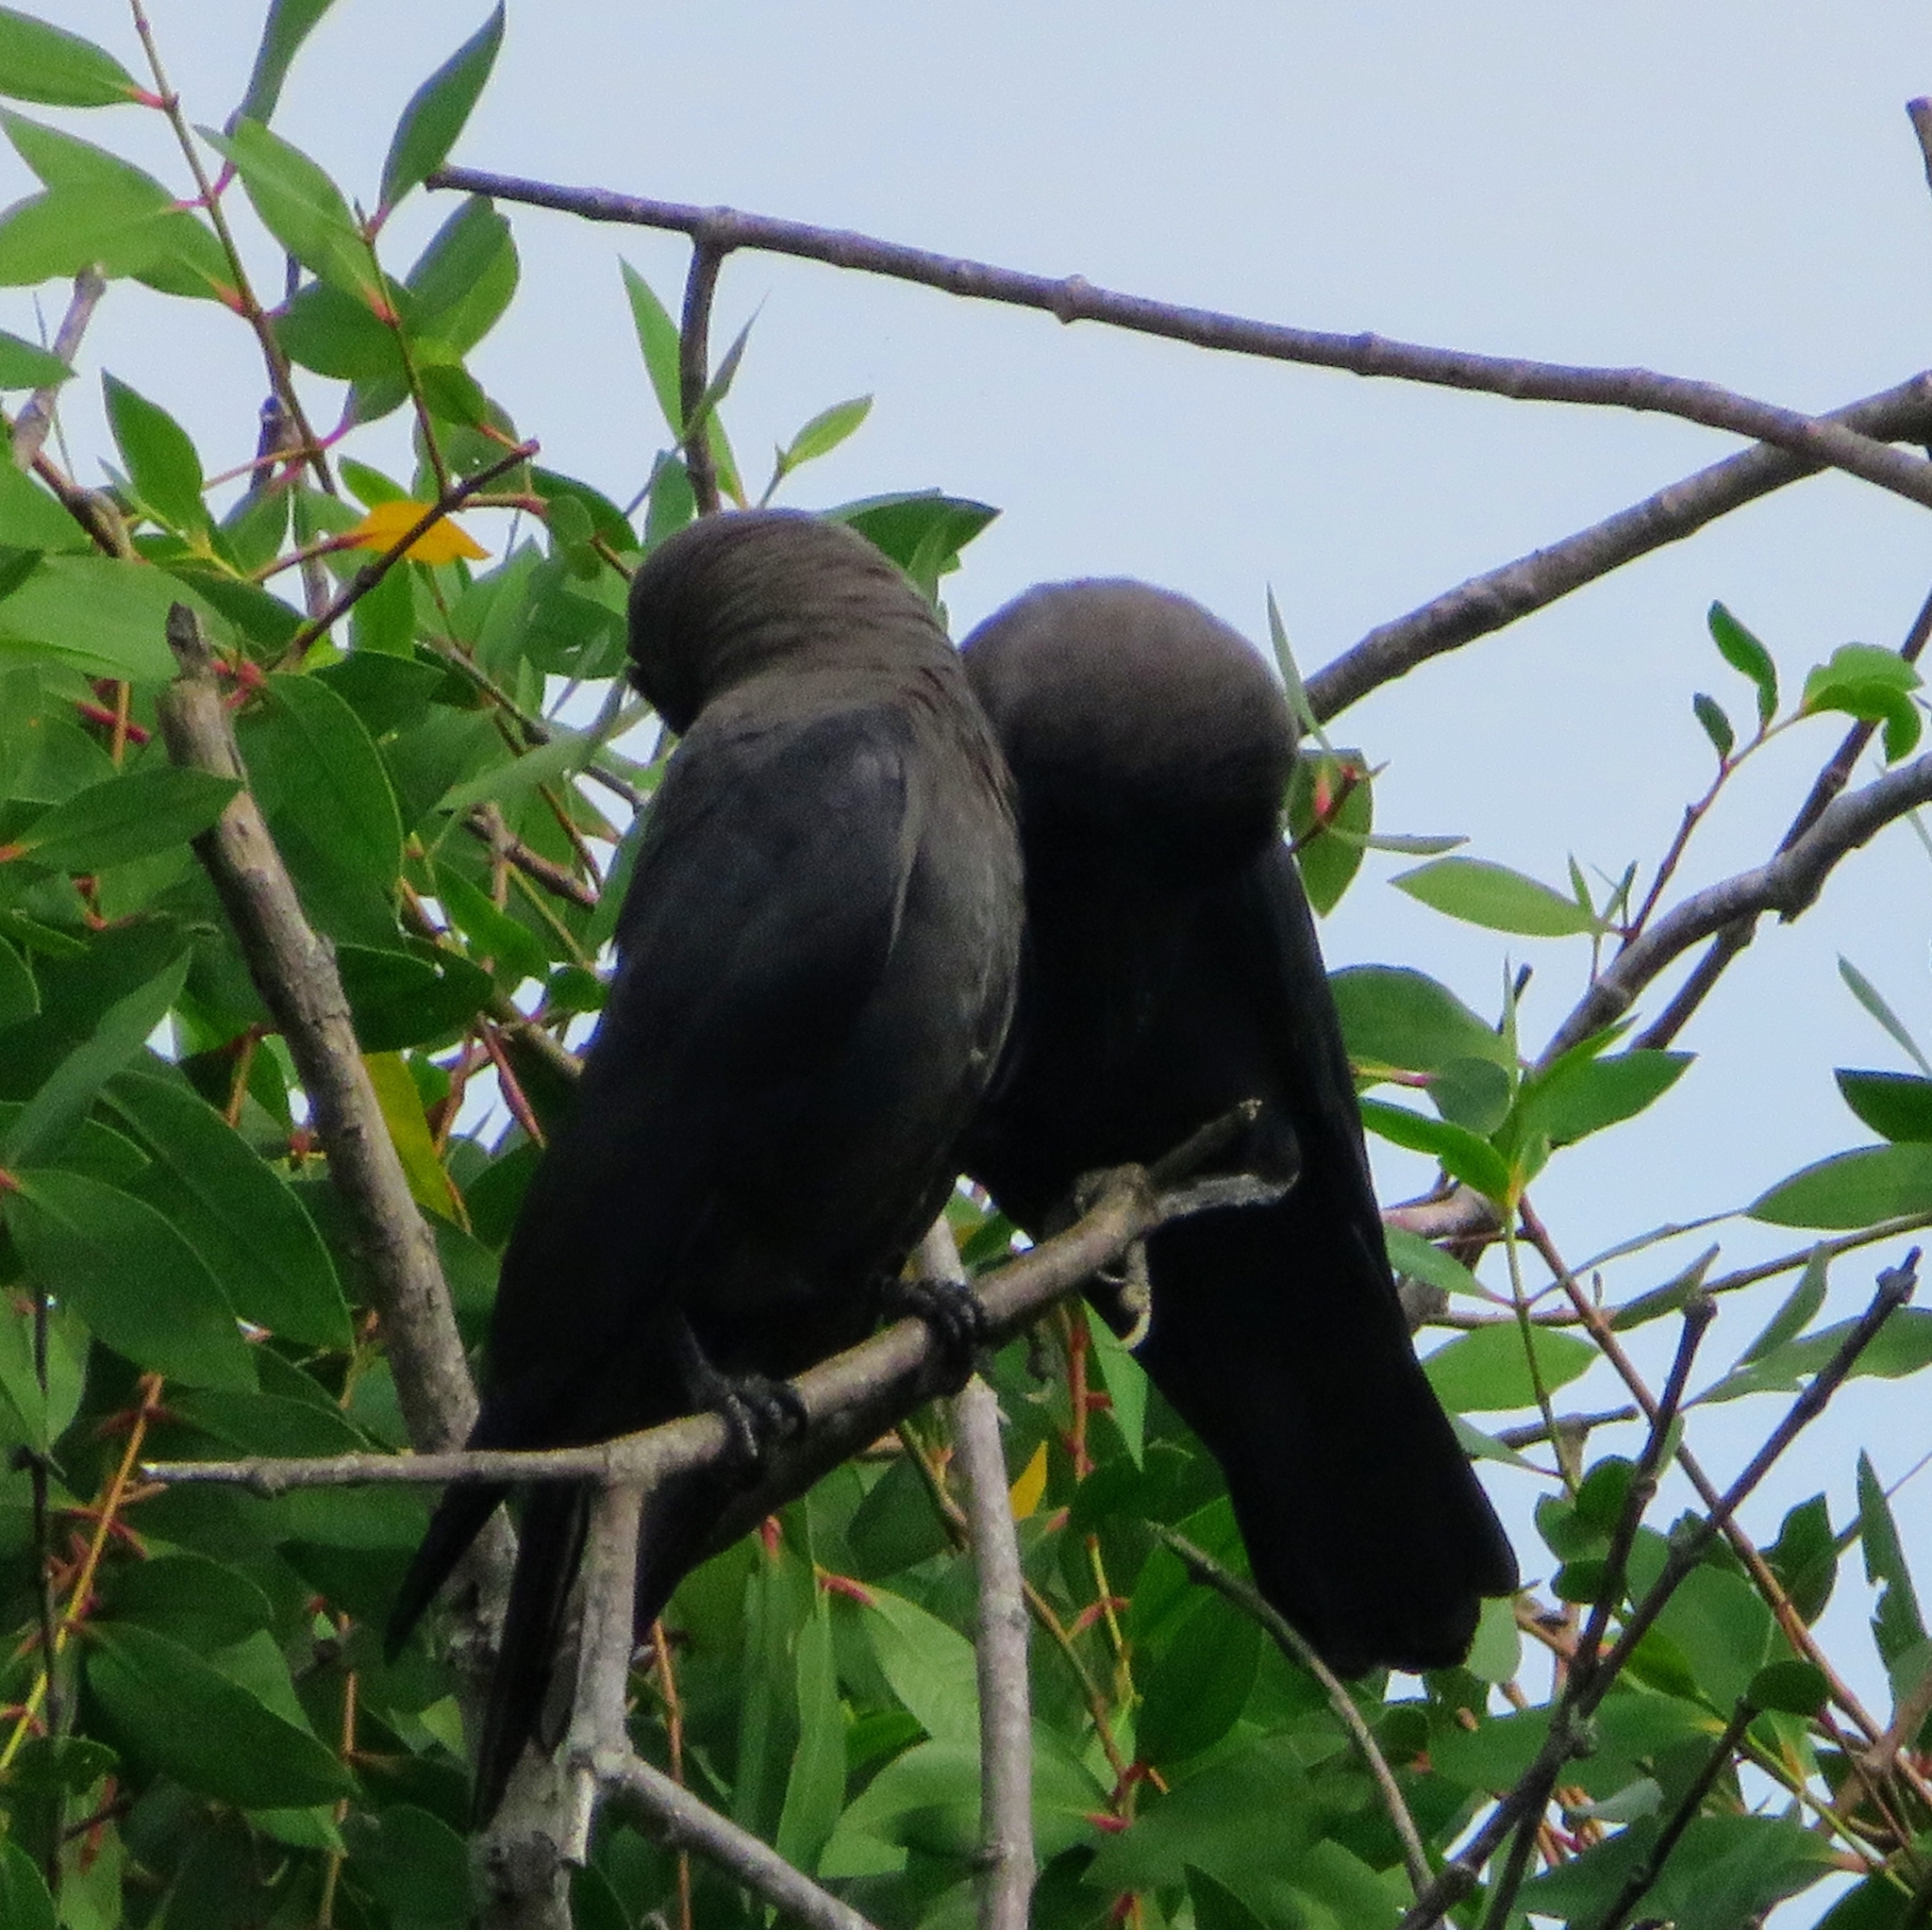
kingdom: Animalia
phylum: Chordata
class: Aves
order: Passeriformes
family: Corvidae
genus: Corvus
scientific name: Corvus splendens
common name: House crow
